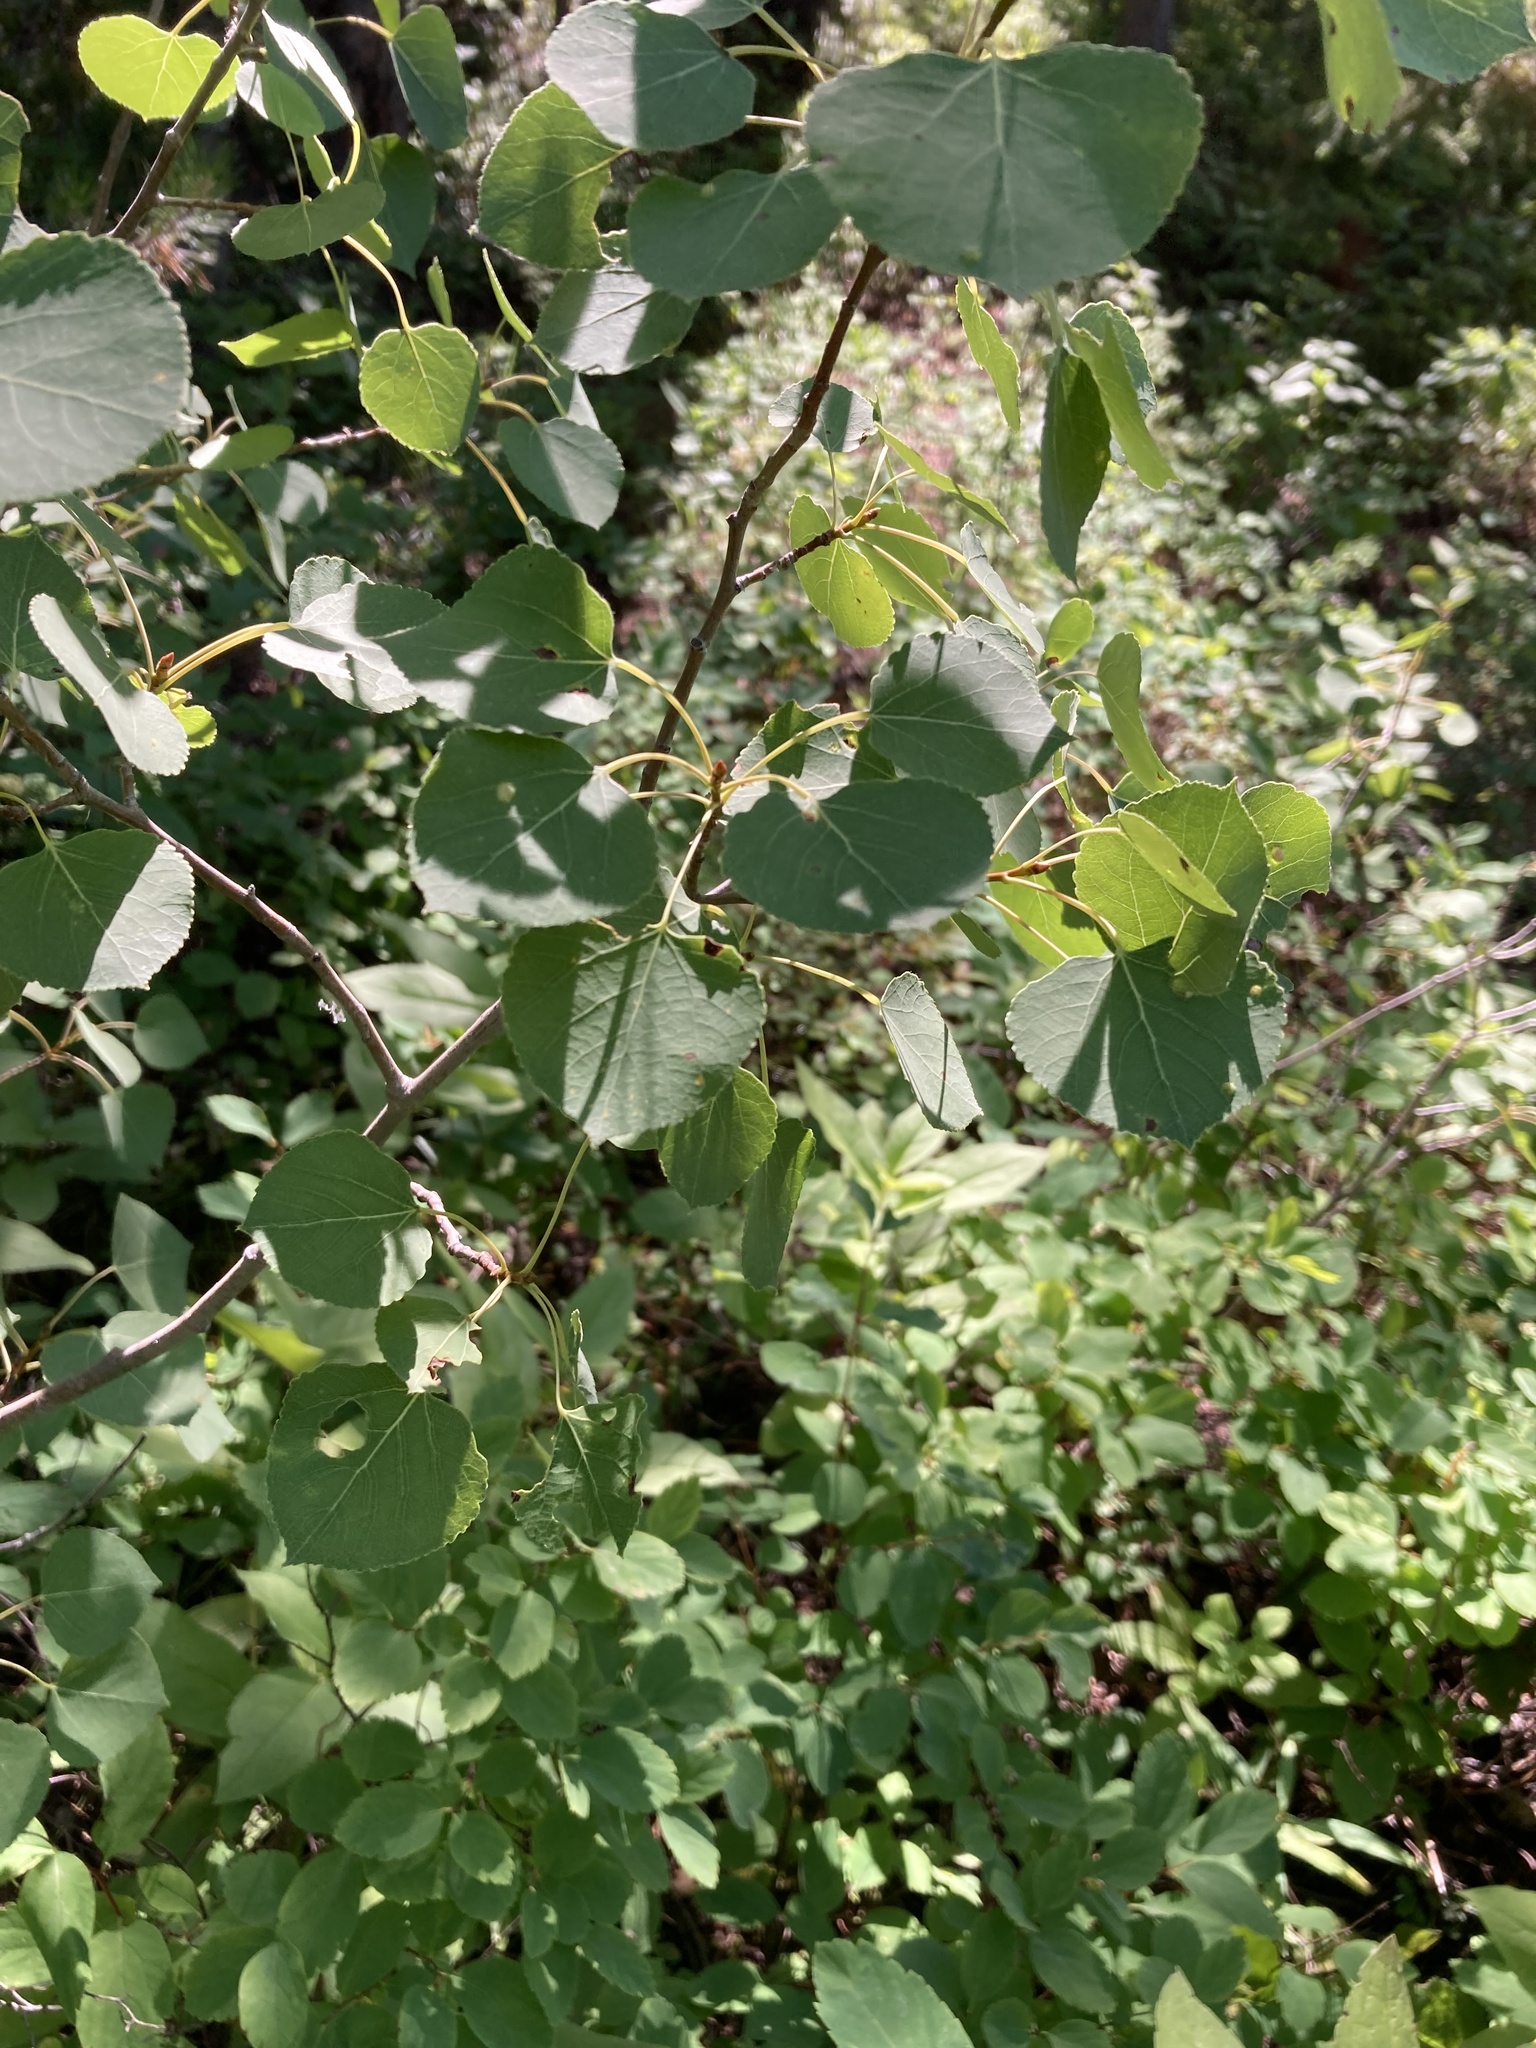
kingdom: Plantae
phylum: Tracheophyta
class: Magnoliopsida
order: Malpighiales
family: Salicaceae
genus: Populus
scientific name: Populus tremuloides
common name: Quaking aspen
